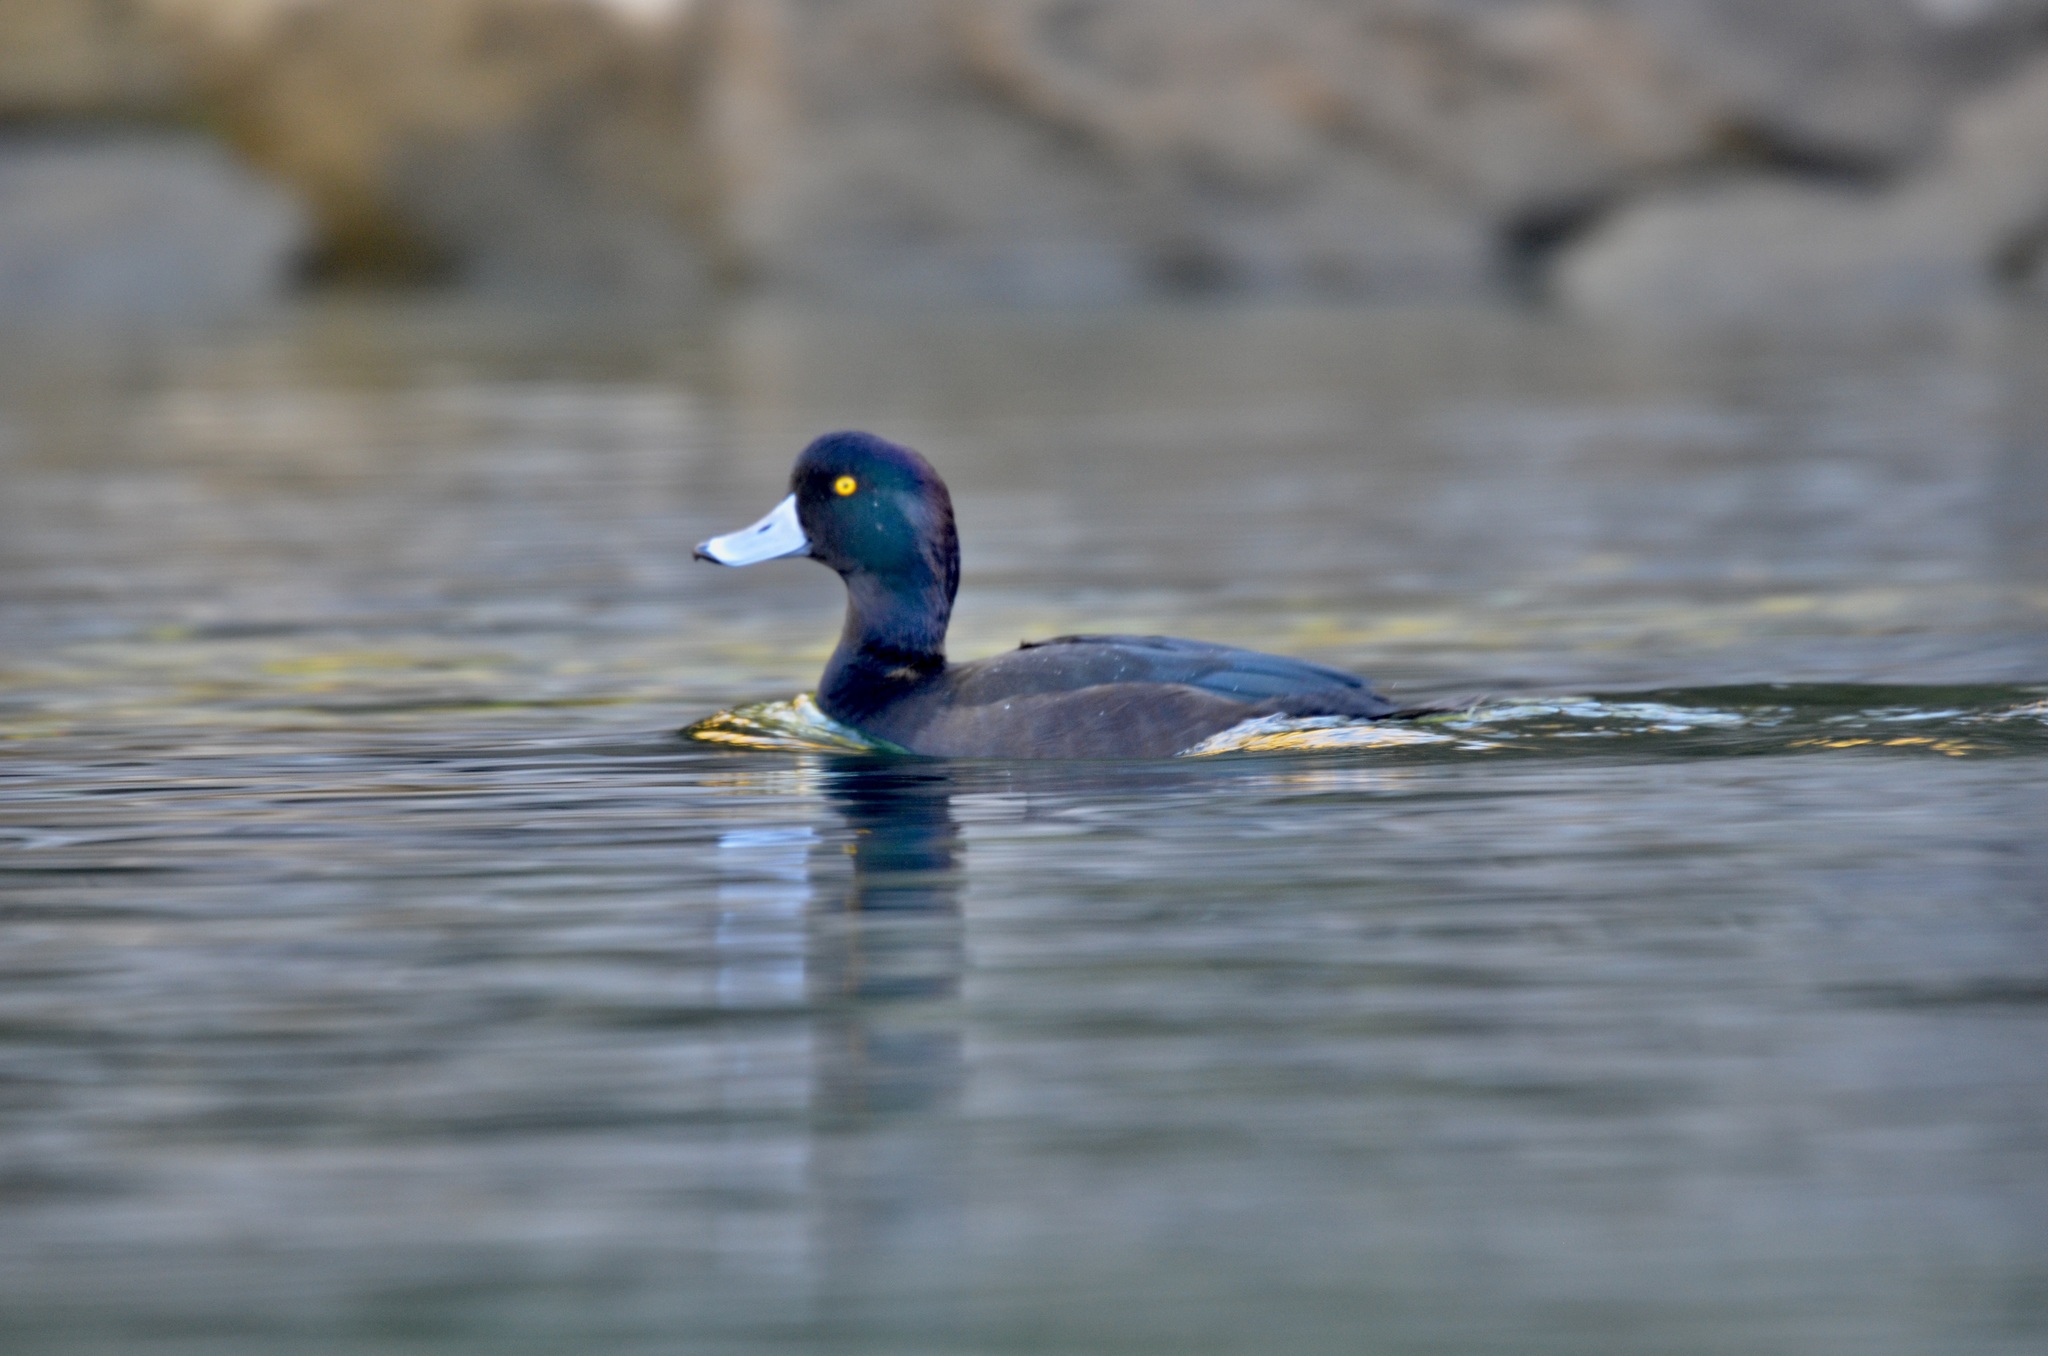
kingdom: Animalia
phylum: Chordata
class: Aves
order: Anseriformes
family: Anatidae
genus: Aythya
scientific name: Aythya novaeseelandiae
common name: New zealand scaup
